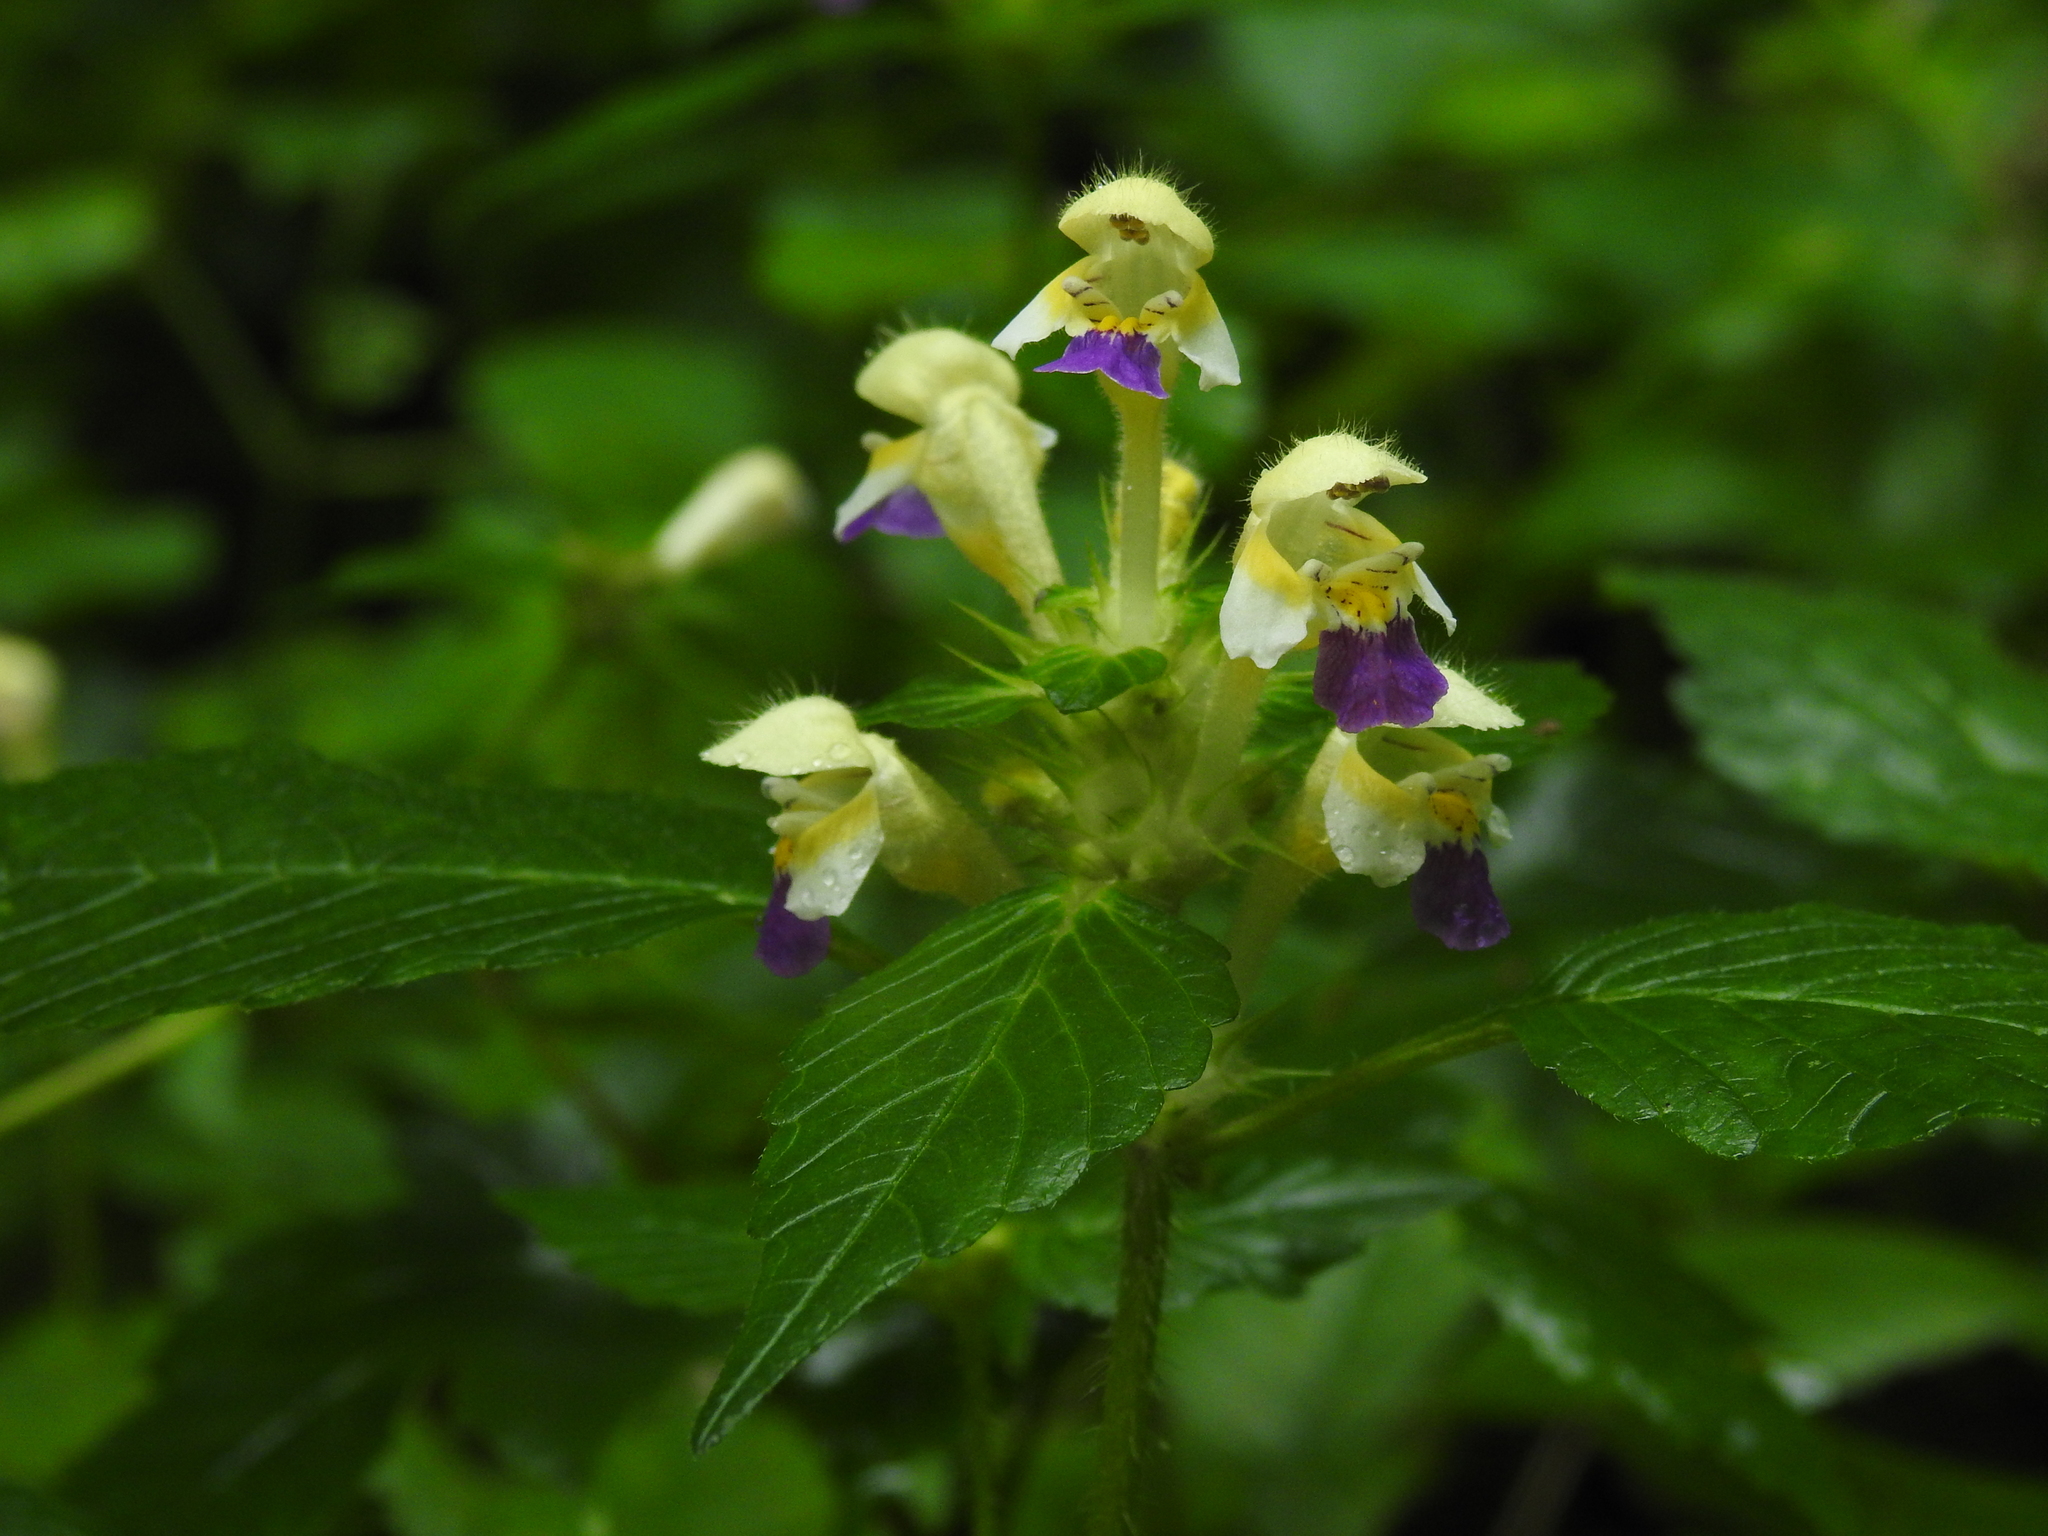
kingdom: Plantae
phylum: Tracheophyta
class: Magnoliopsida
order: Lamiales
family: Lamiaceae
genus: Galeopsis
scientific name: Galeopsis speciosa
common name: Large-flowered hemp-nettle
